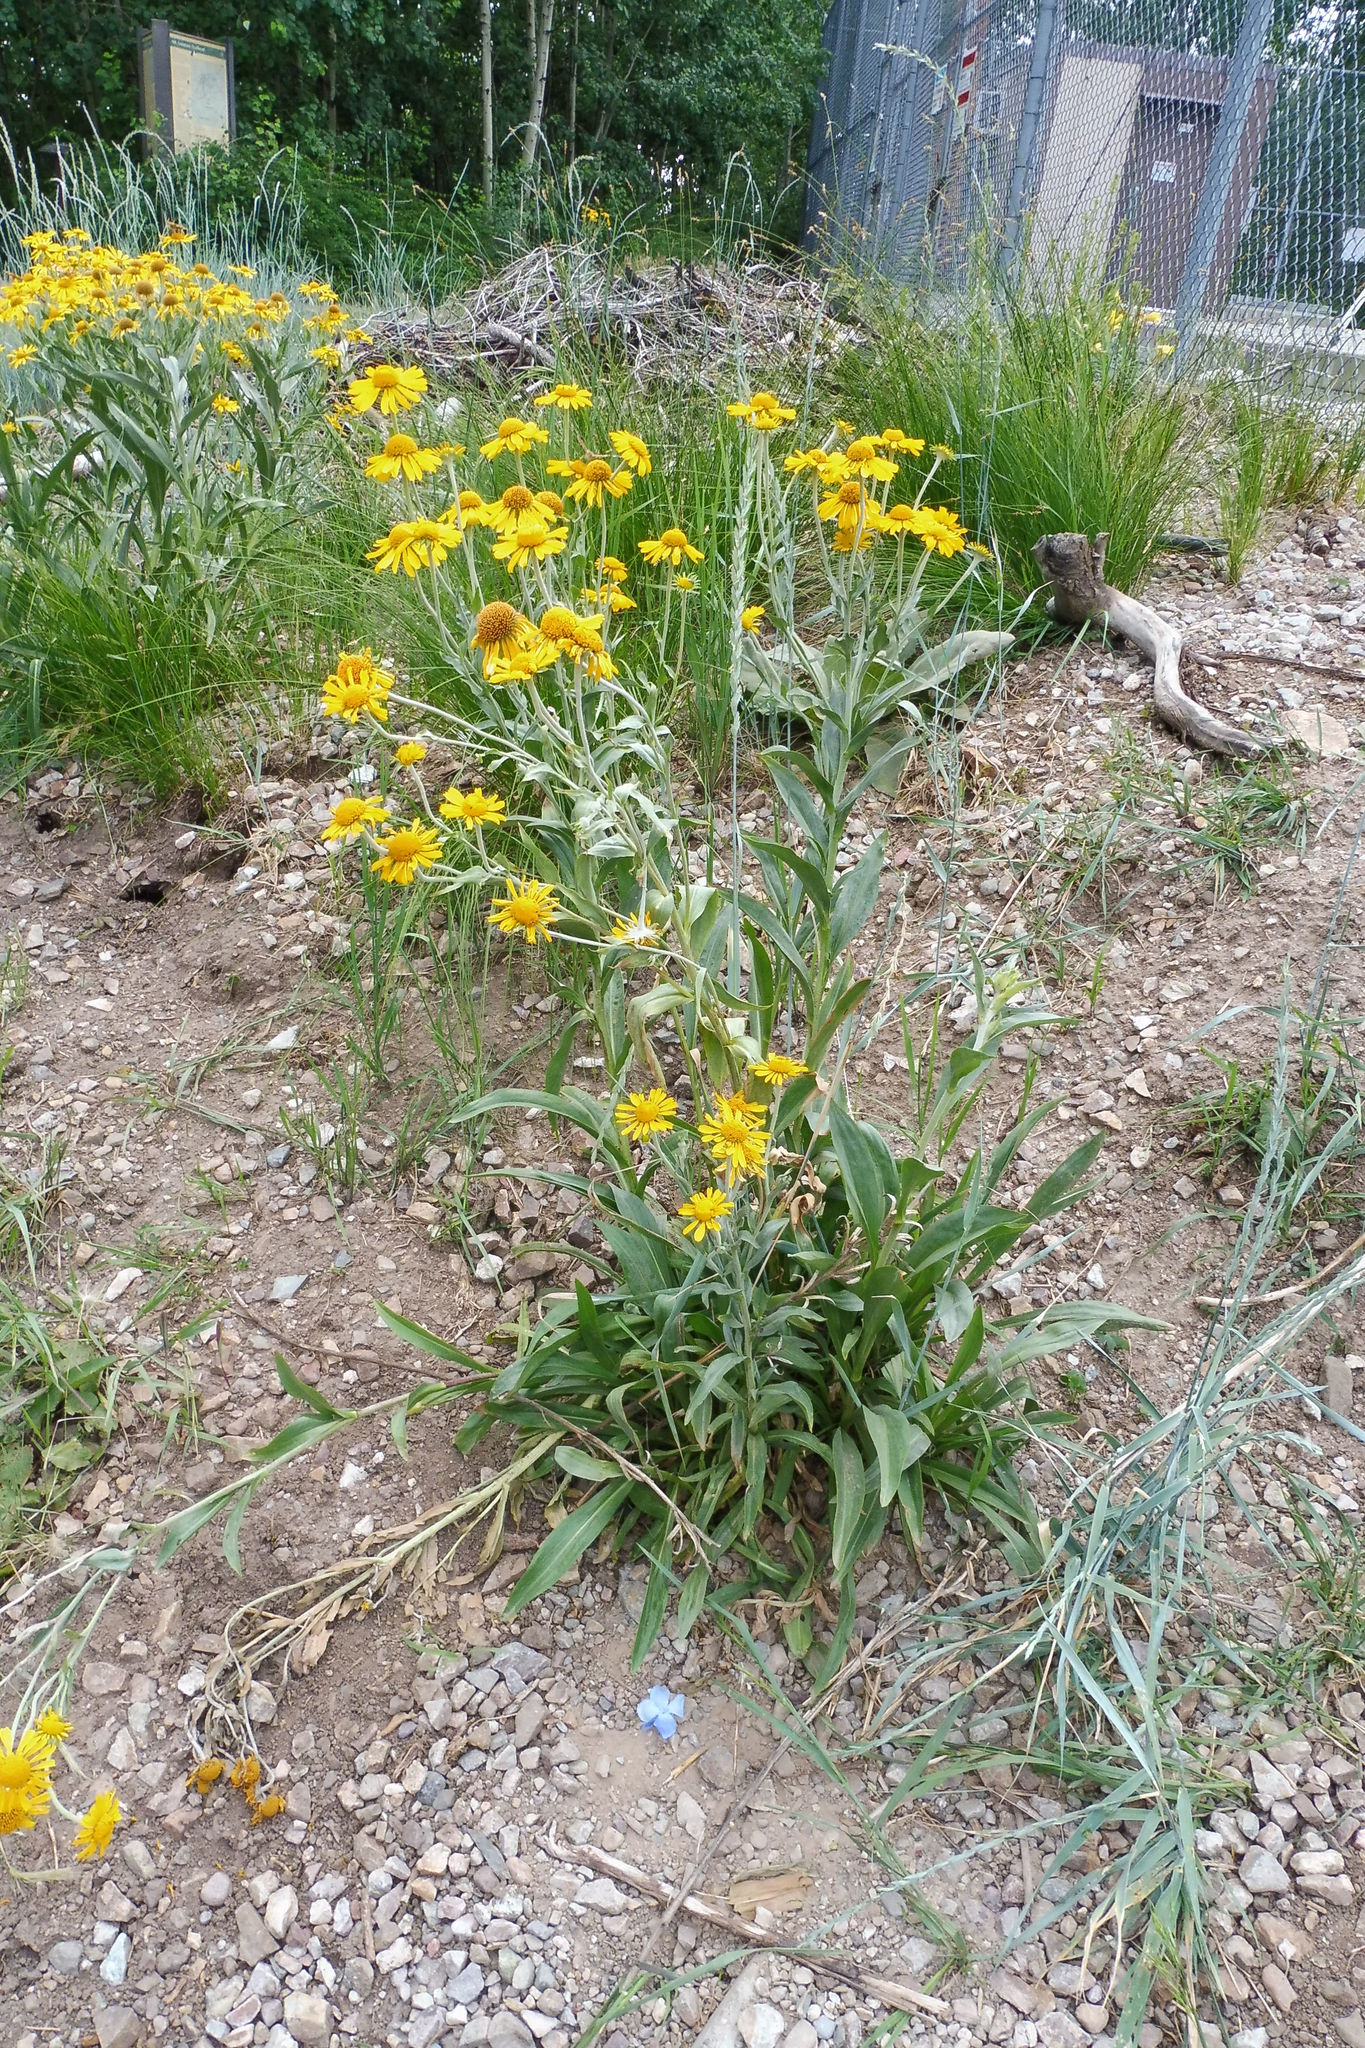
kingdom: Plantae
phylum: Tracheophyta
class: Magnoliopsida
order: Asterales
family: Asteraceae
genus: Hymenoxys
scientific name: Hymenoxys hoopesii
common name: Orange-sneezeweed
